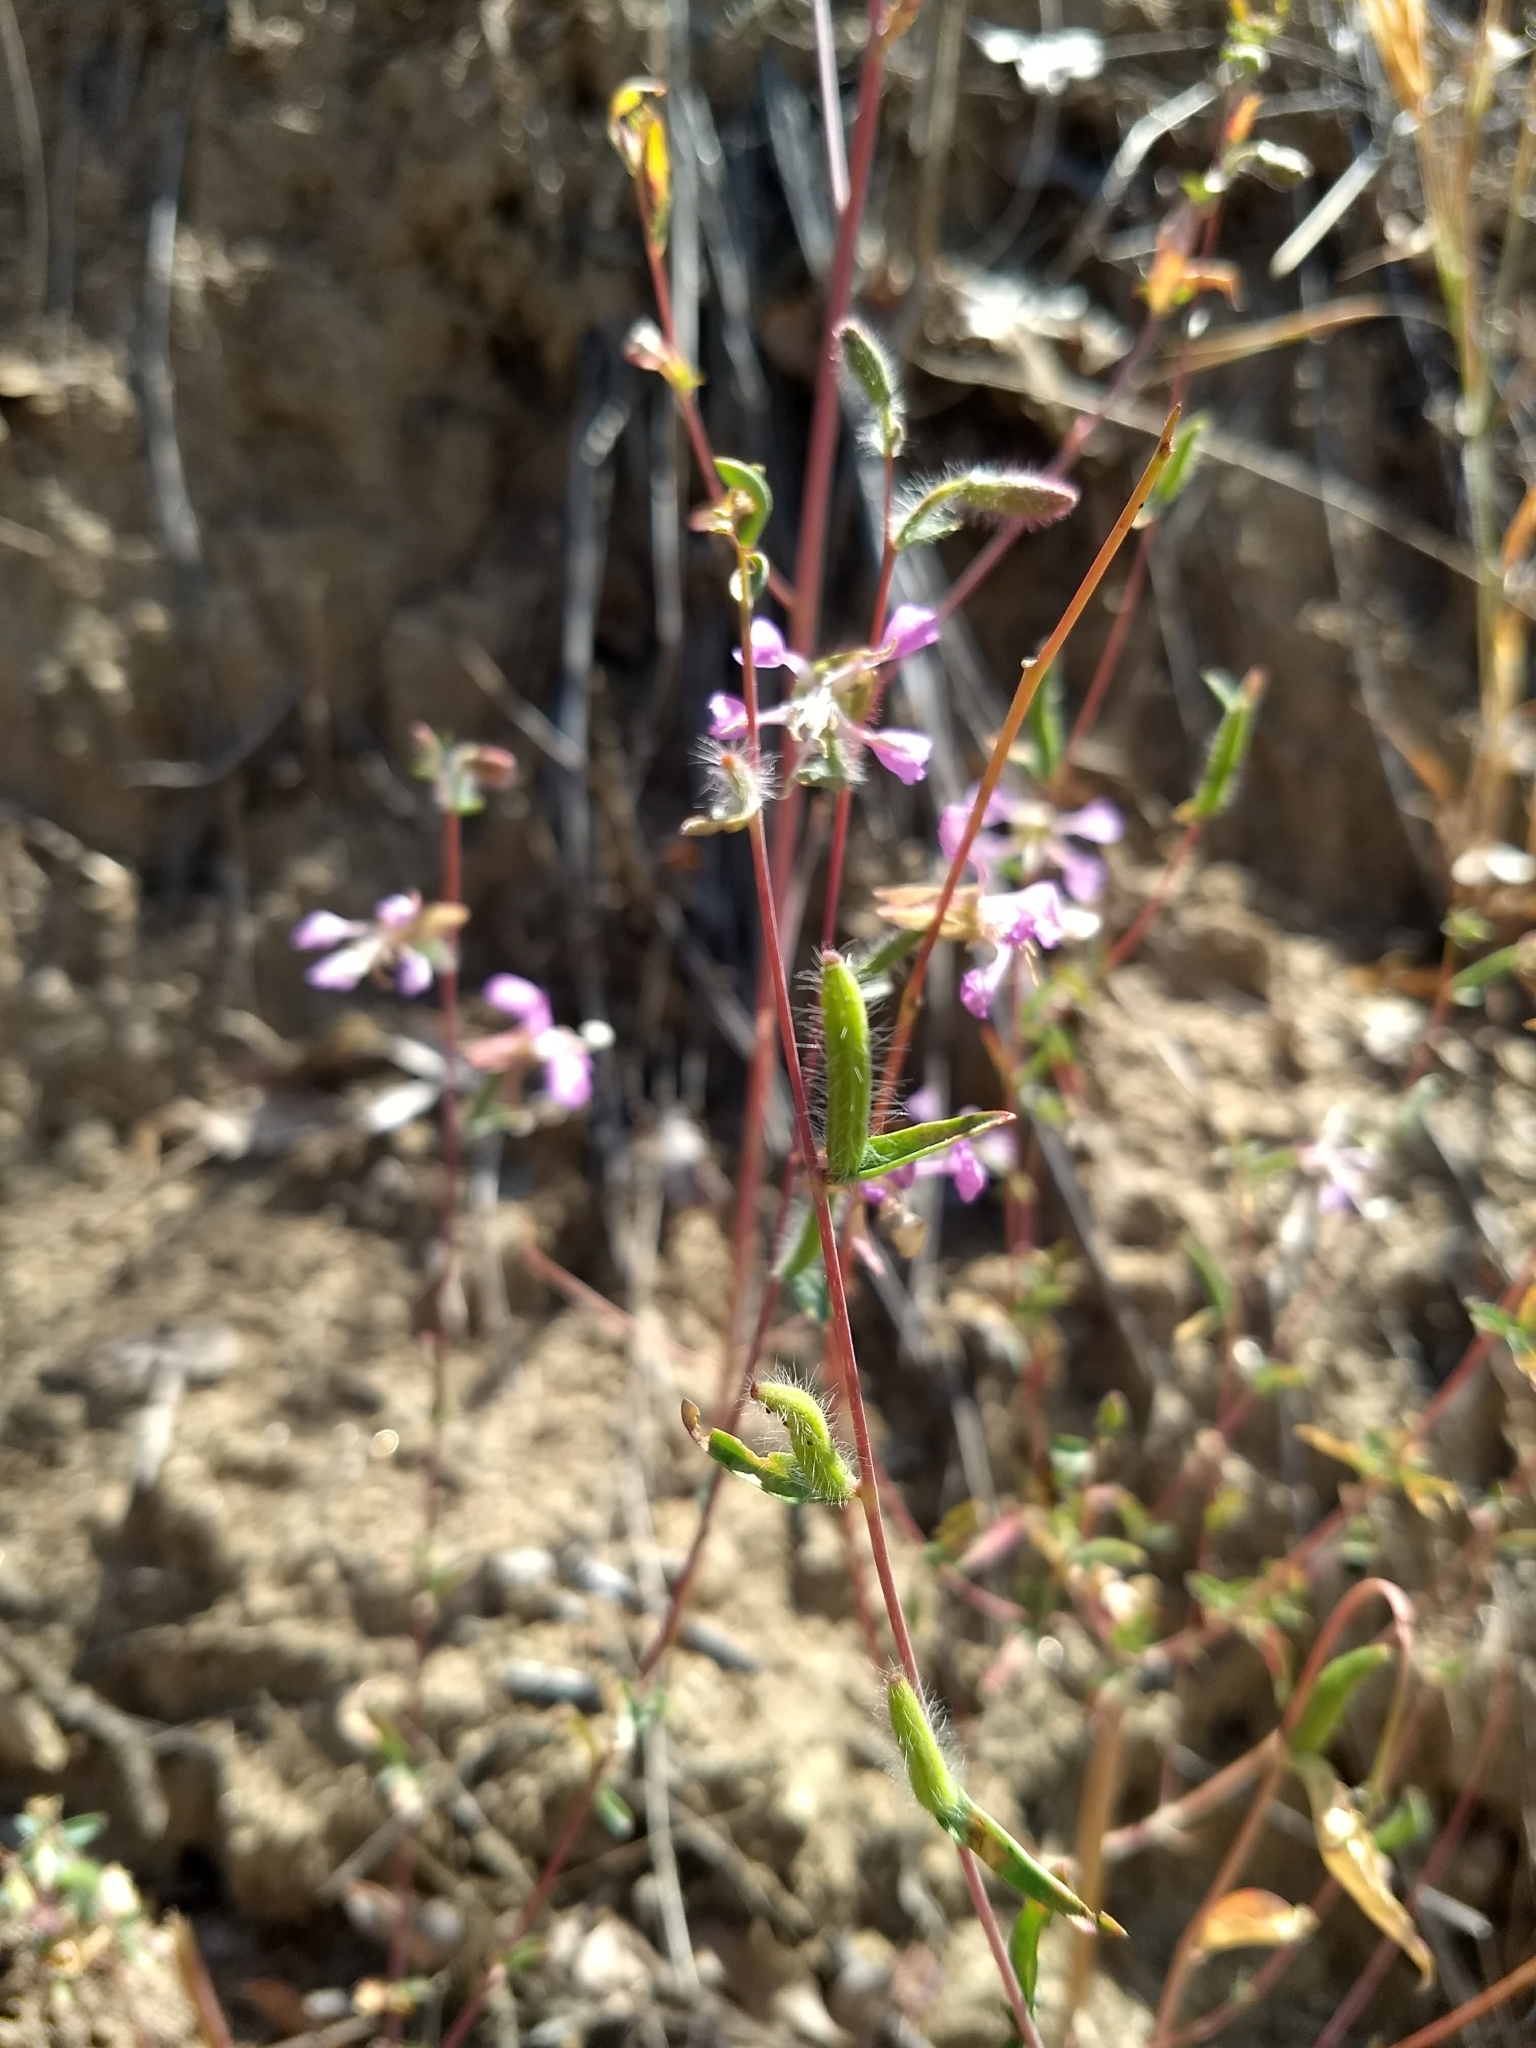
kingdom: Plantae
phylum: Tracheophyta
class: Magnoliopsida
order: Myrtales
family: Onagraceae
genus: Clarkia
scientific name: Clarkia unguiculata
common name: Clarkia
